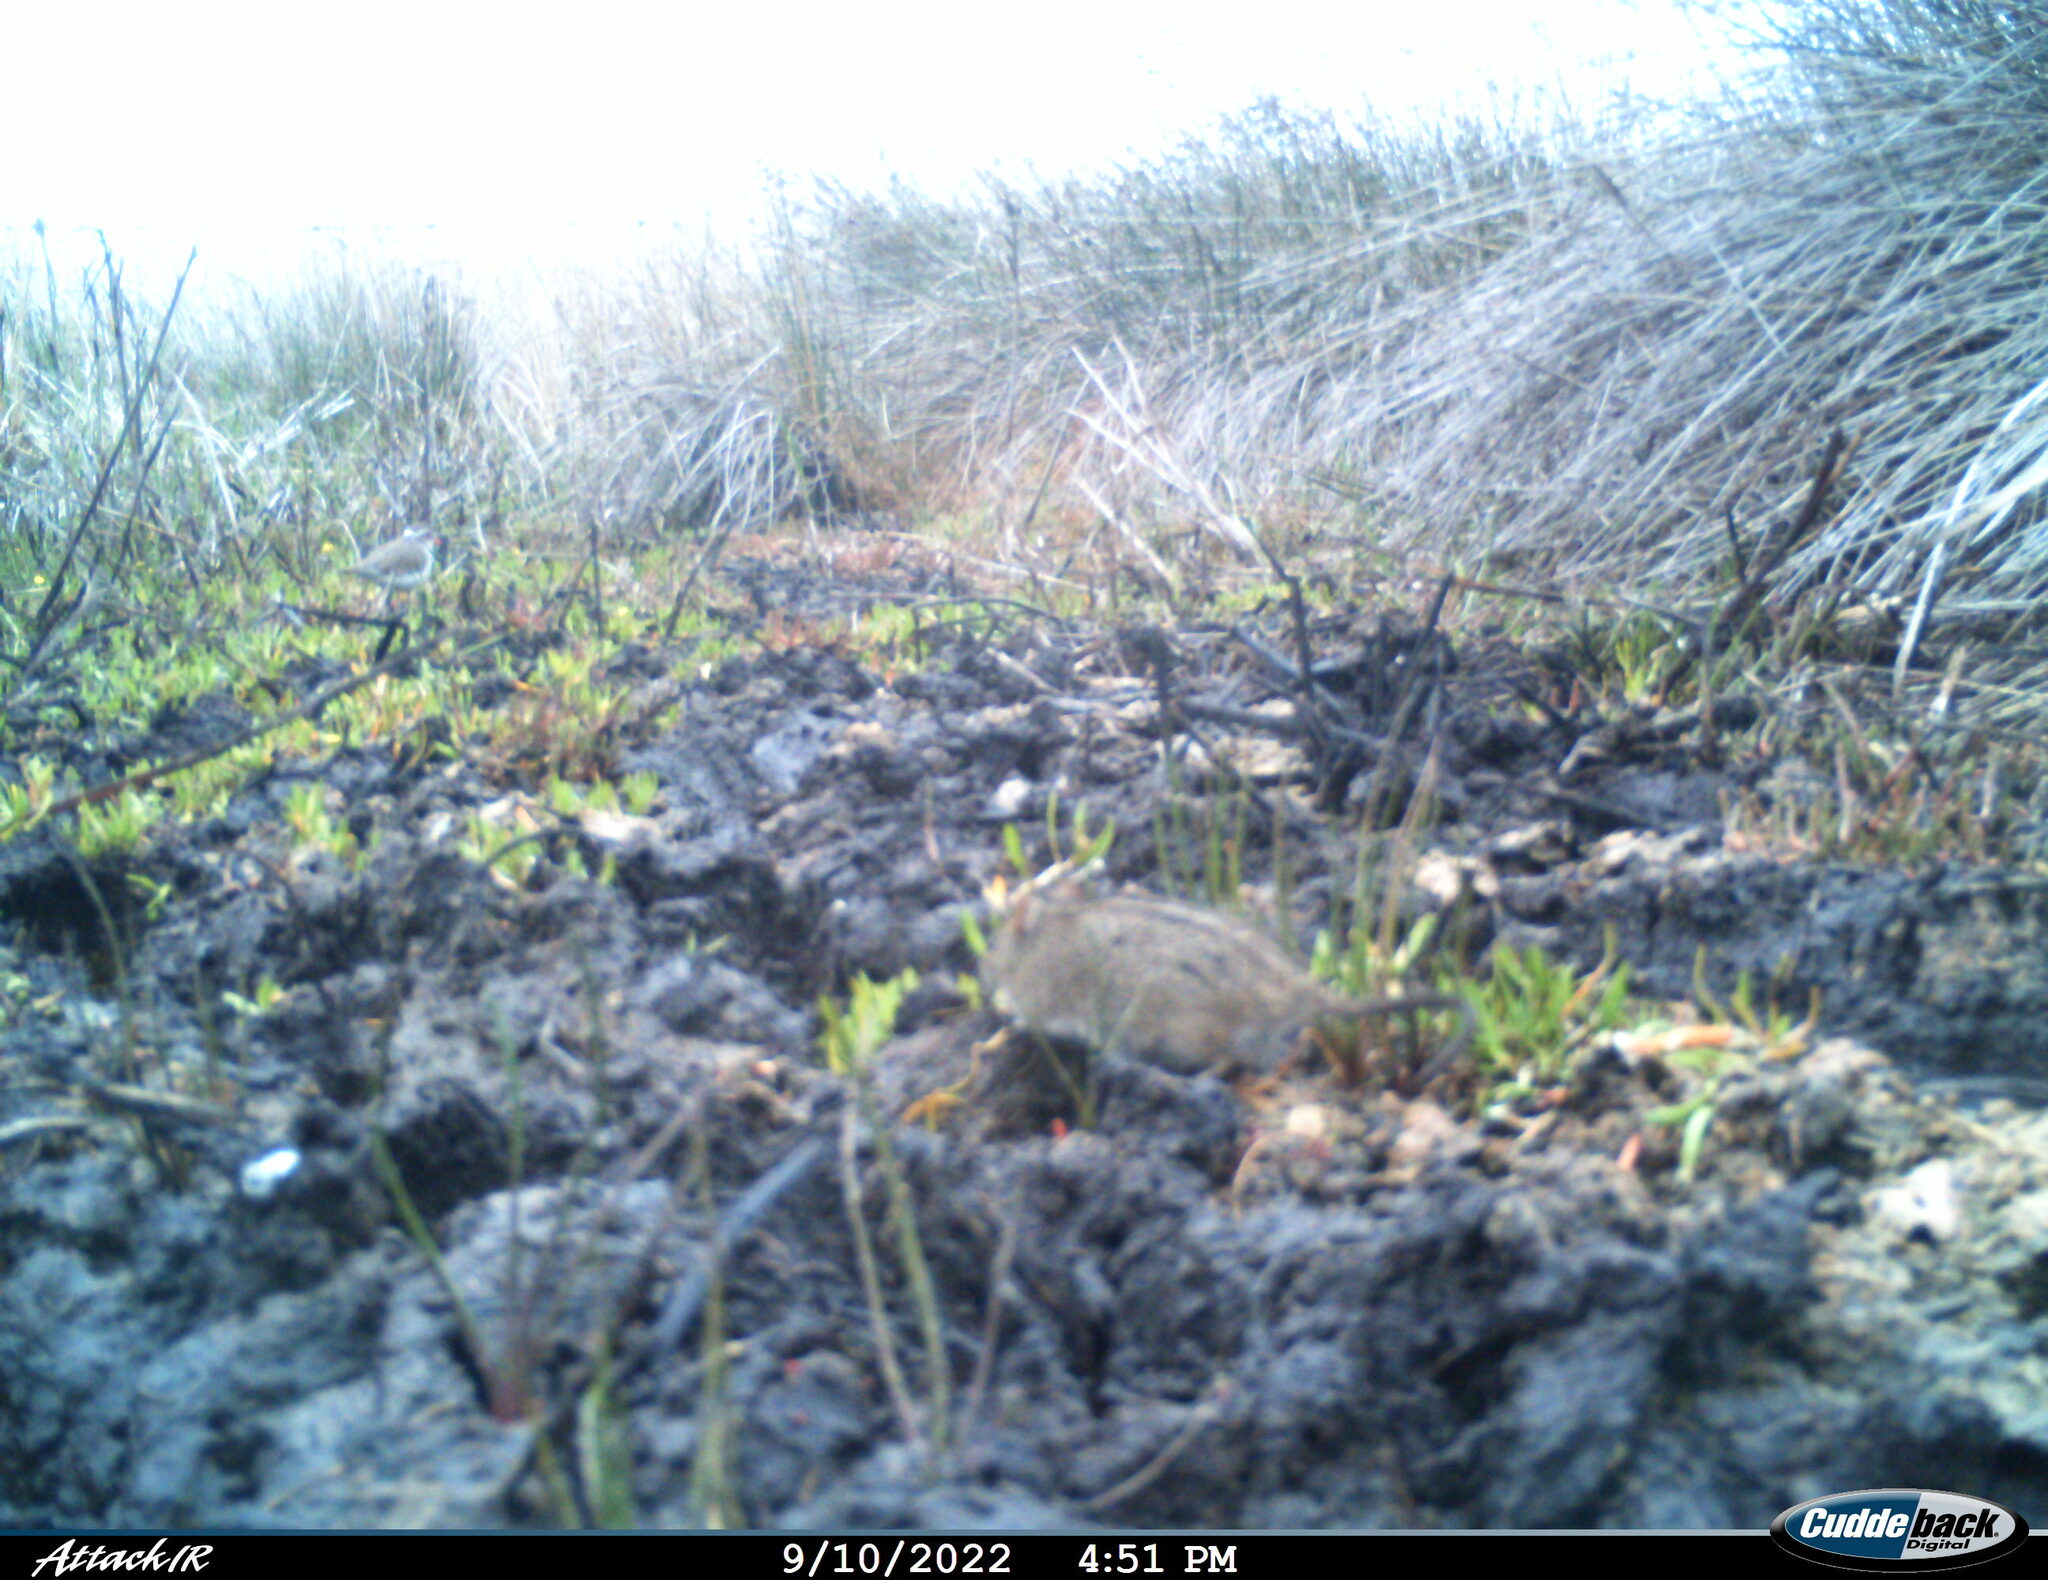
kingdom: Animalia
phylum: Chordata
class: Mammalia
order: Rodentia
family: Muridae
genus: Rhabdomys
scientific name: Rhabdomys pumilio
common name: Xeric four-striped grass rat
